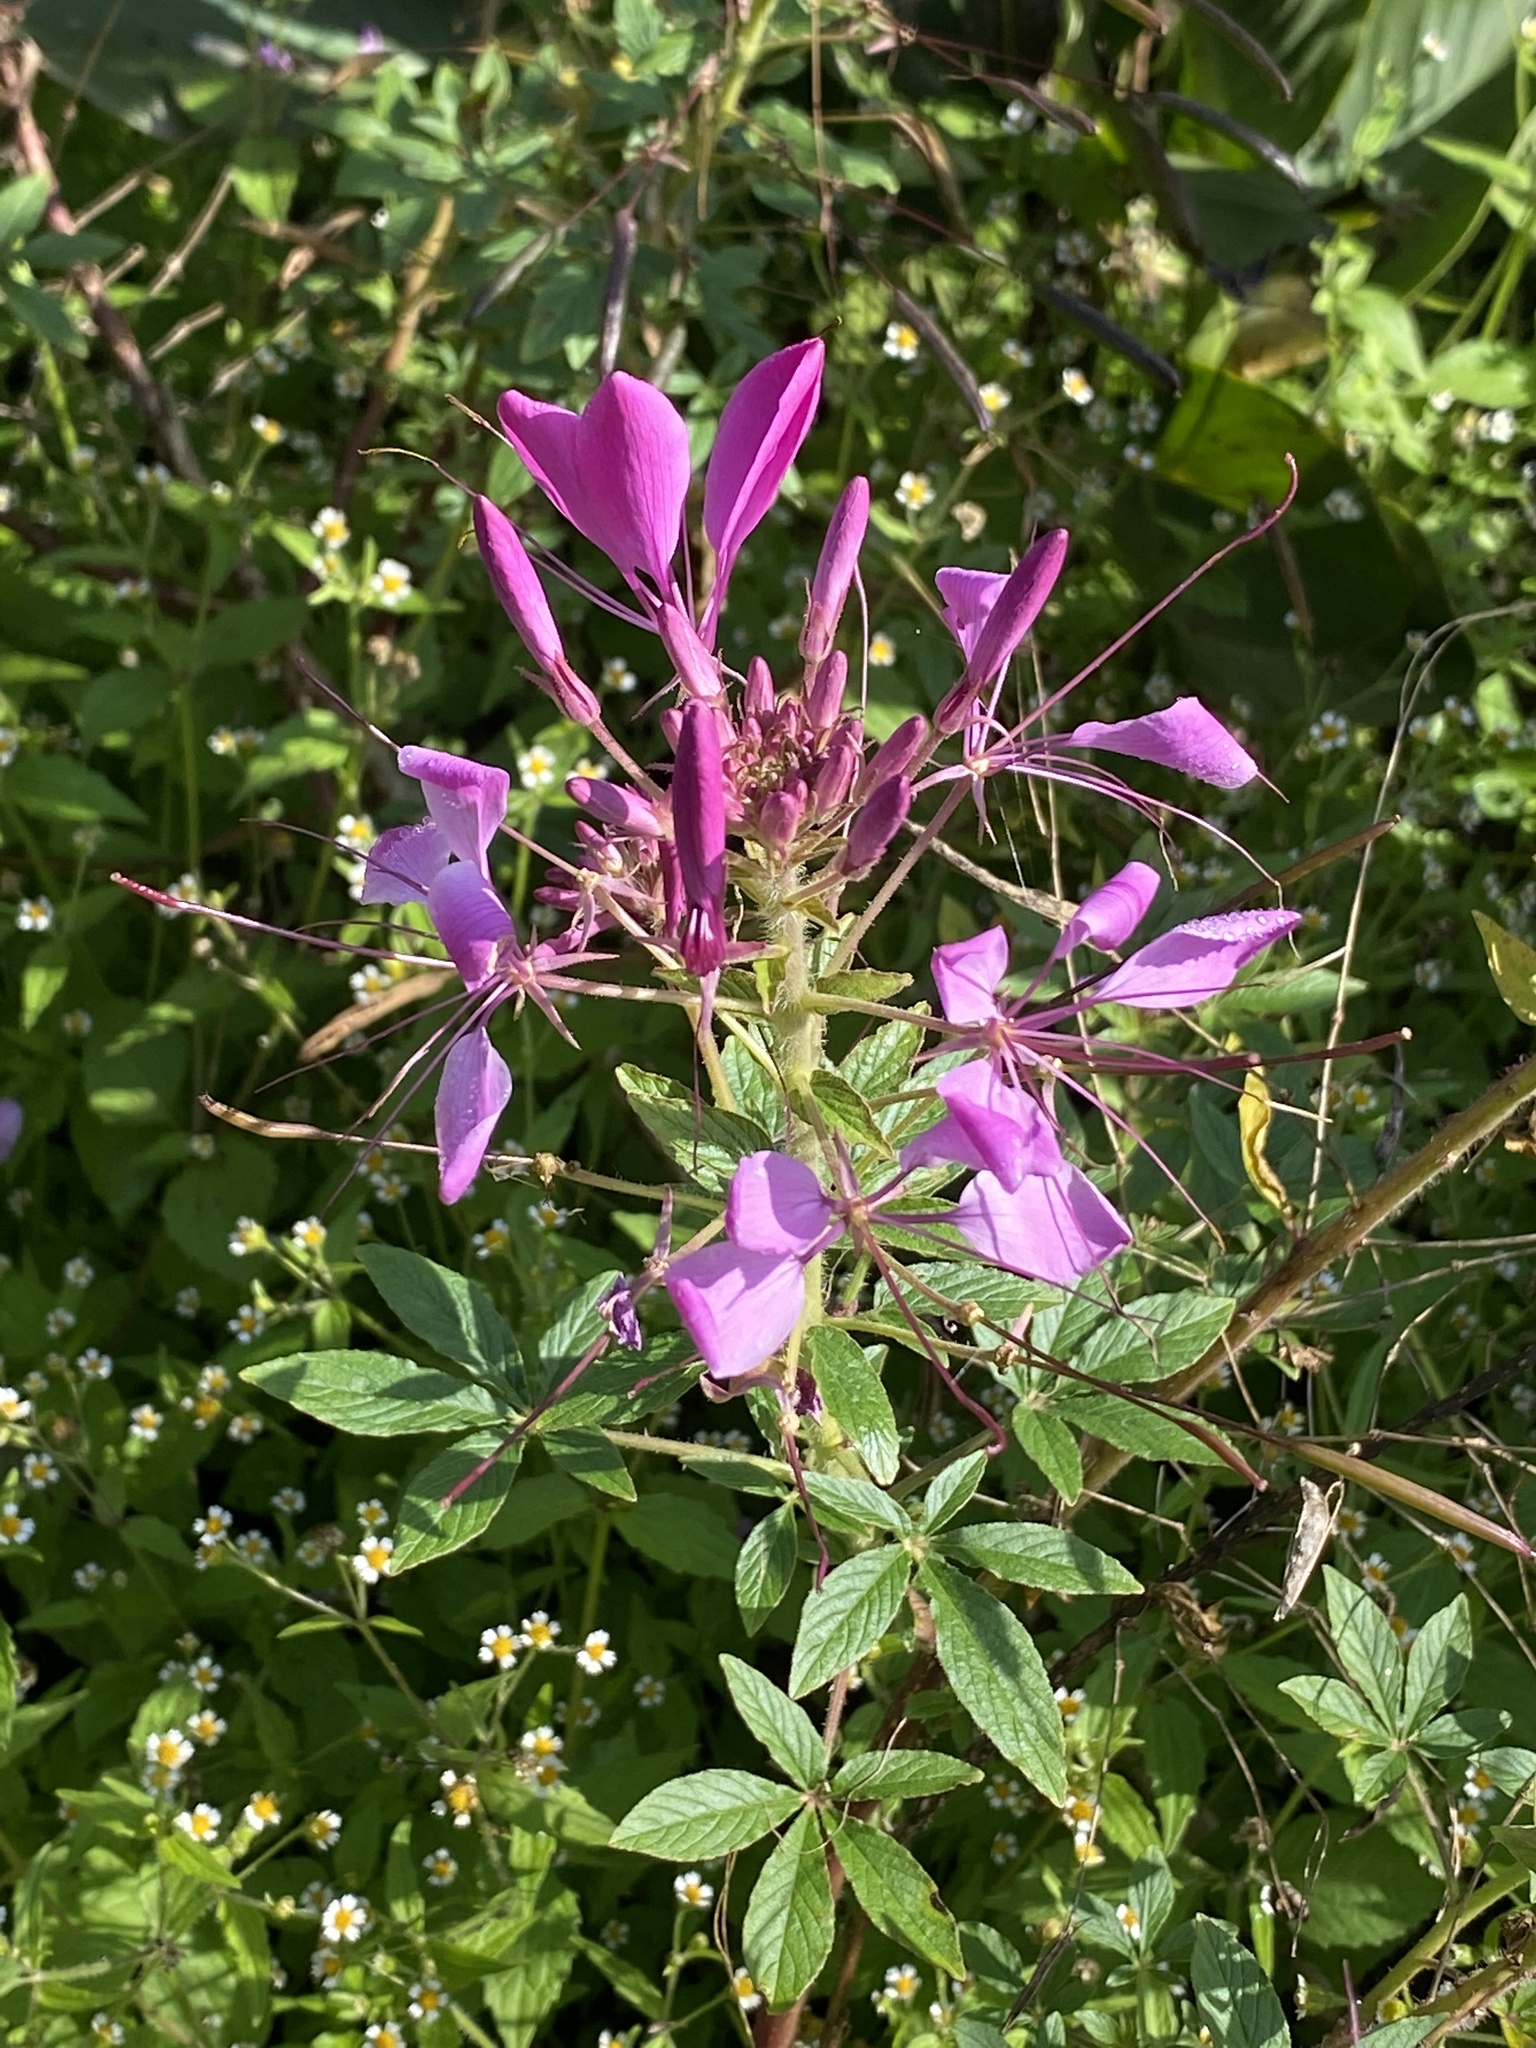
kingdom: Plantae
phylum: Tracheophyta
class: Magnoliopsida
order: Brassicales
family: Cleomaceae
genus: Tarenaya
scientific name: Tarenaya houtteana
